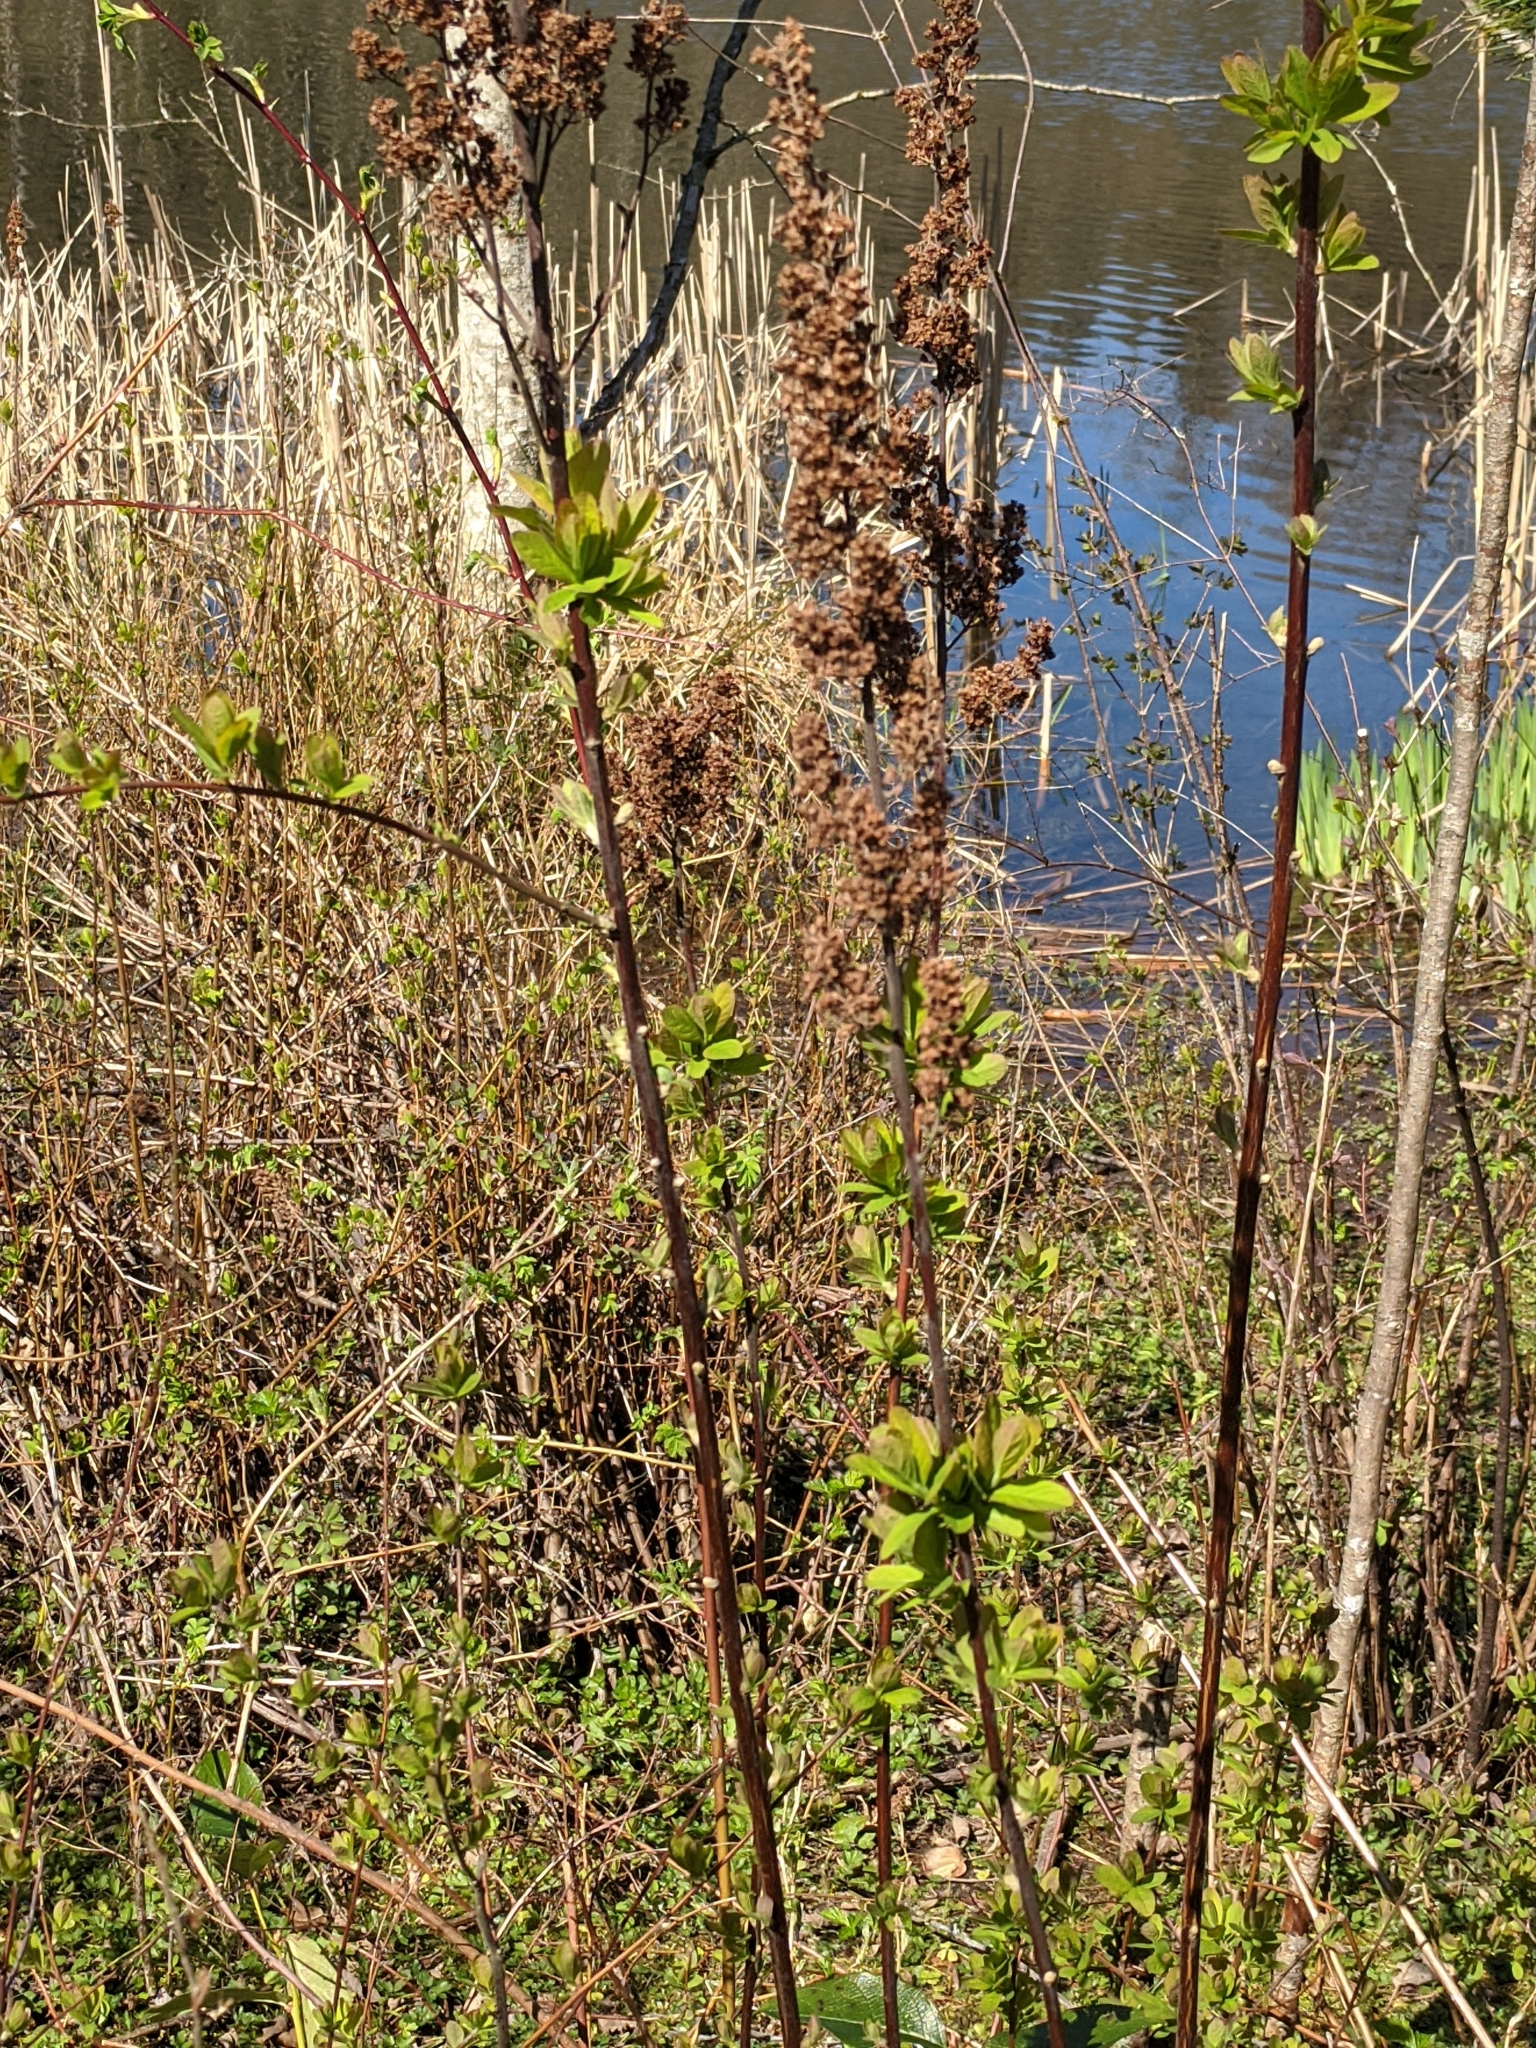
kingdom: Plantae
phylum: Tracheophyta
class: Magnoliopsida
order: Rosales
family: Rosaceae
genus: Spiraea
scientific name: Spiraea douglasii
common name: Steeplebush
